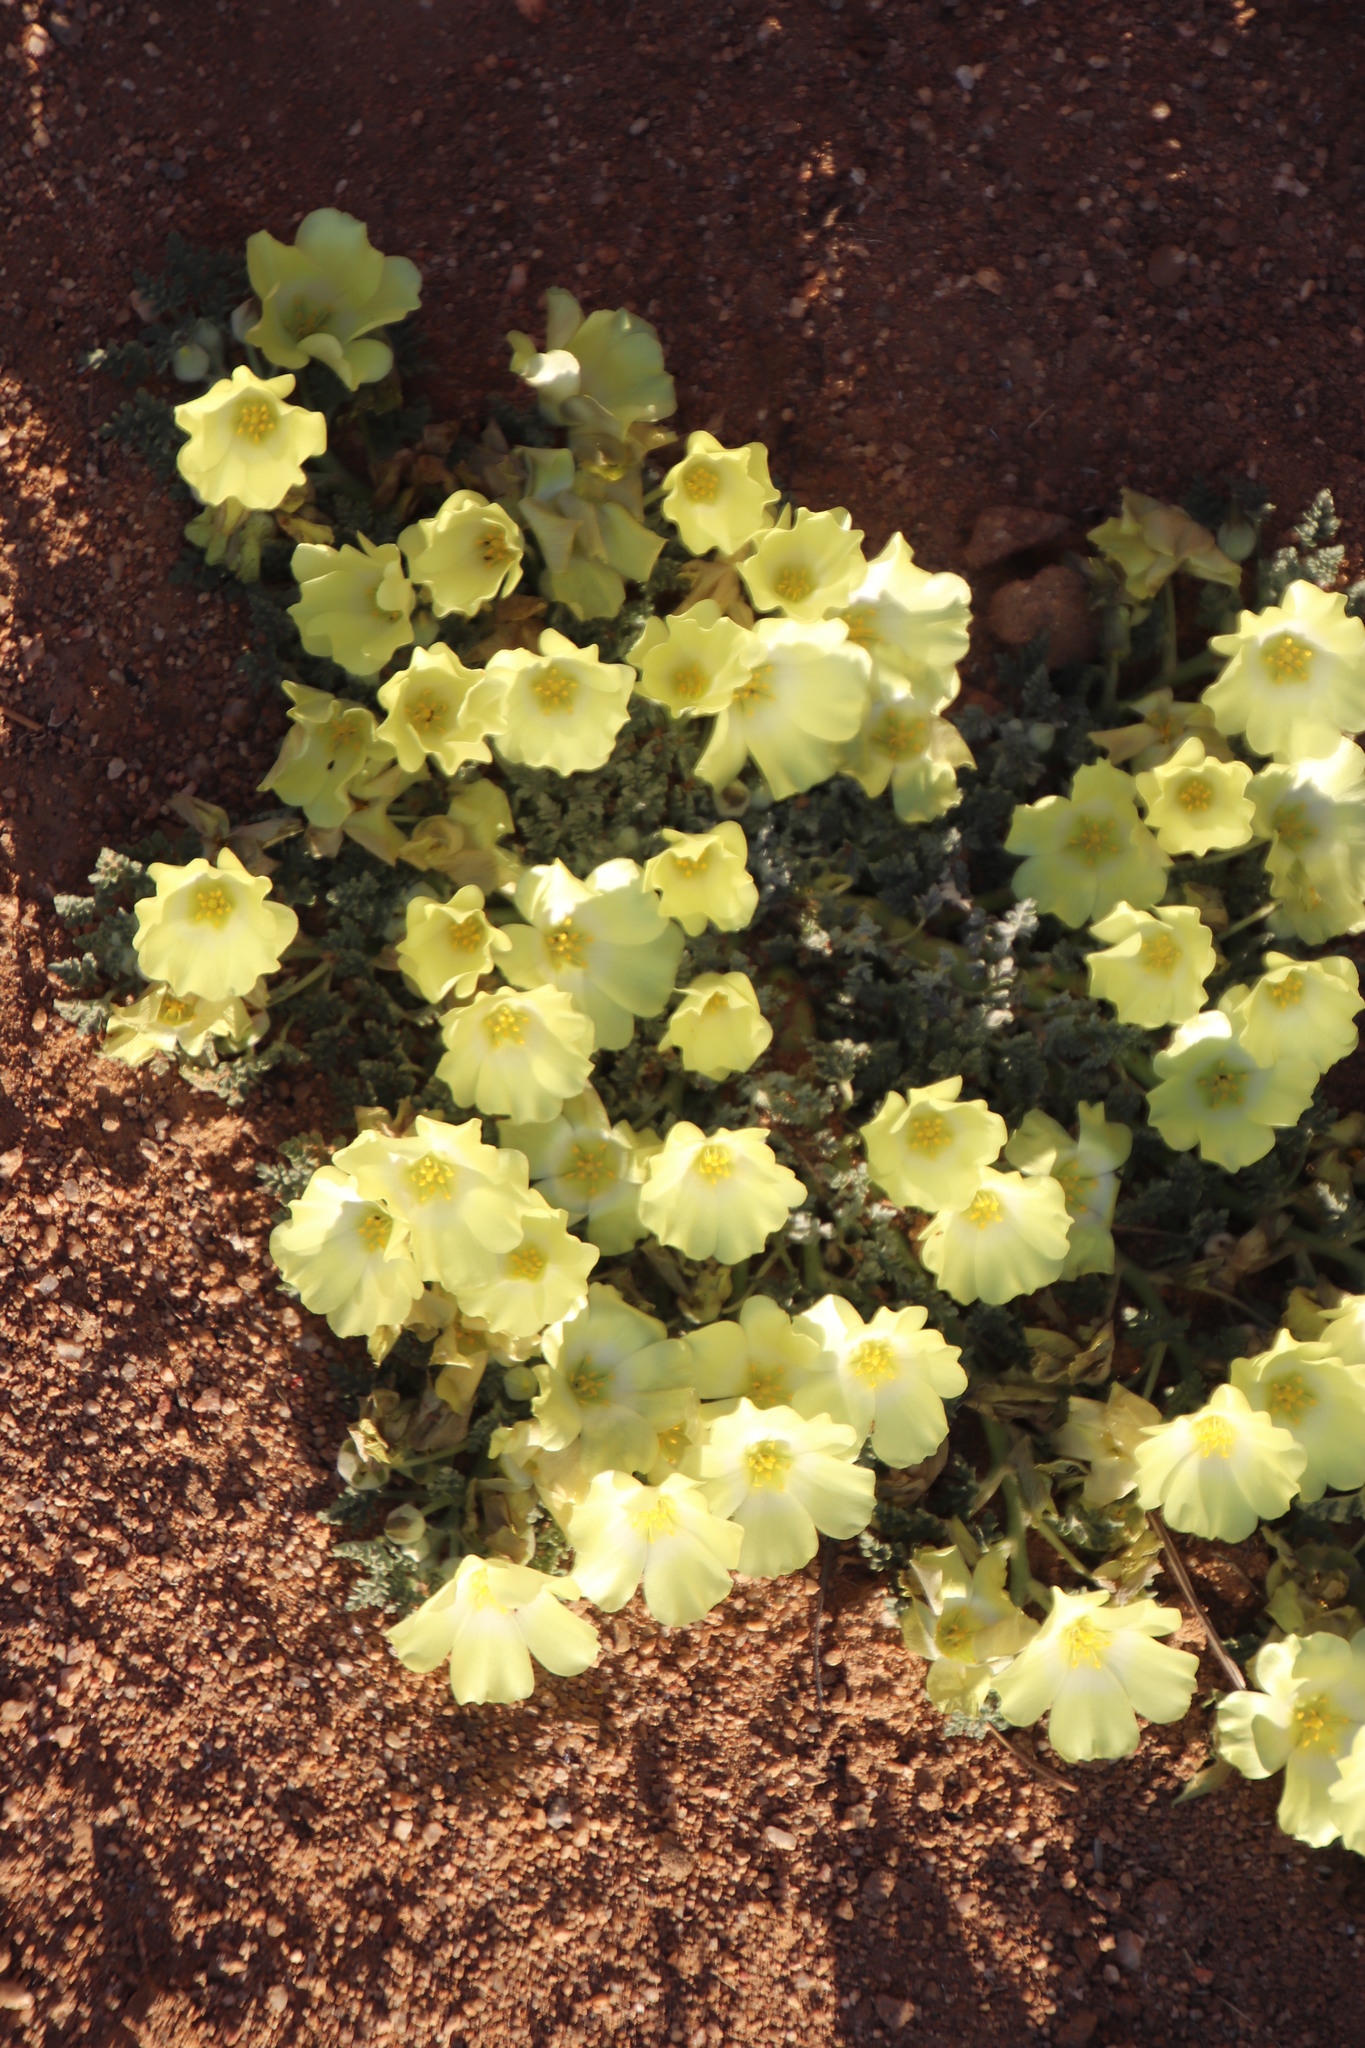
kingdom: Plantae
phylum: Tracheophyta
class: Magnoliopsida
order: Malvales
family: Neuradaceae
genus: Grielum
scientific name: Grielum humifusum
